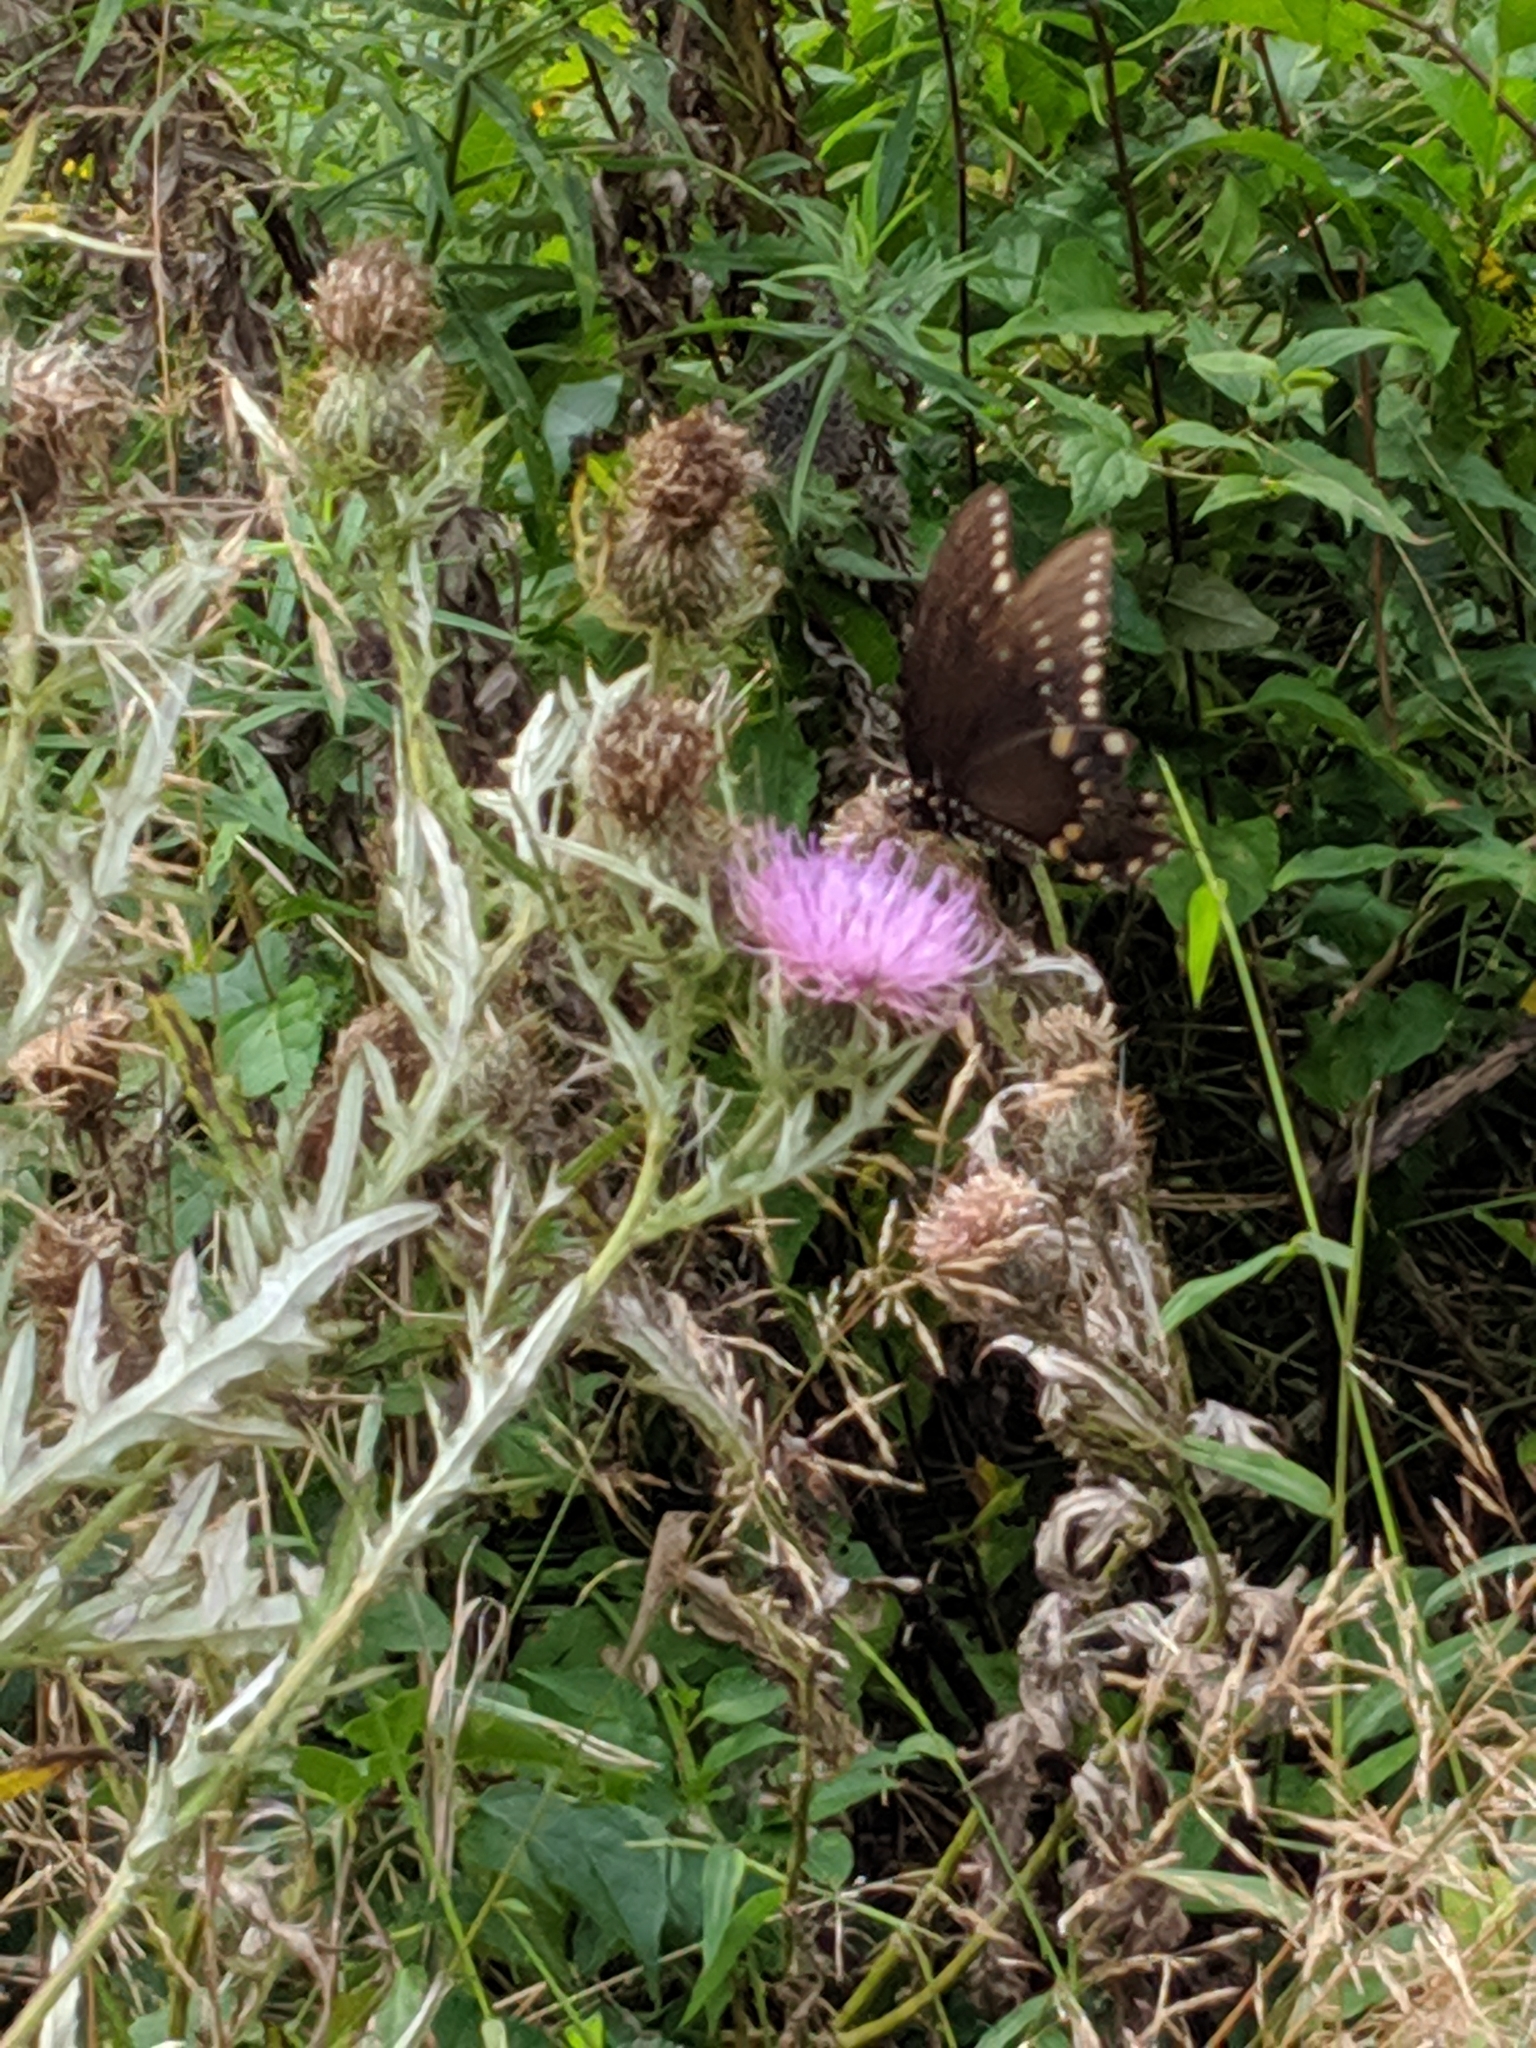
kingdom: Animalia
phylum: Arthropoda
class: Insecta
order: Lepidoptera
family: Papilionidae
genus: Papilio
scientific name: Papilio troilus
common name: Spicebush swallowtail
